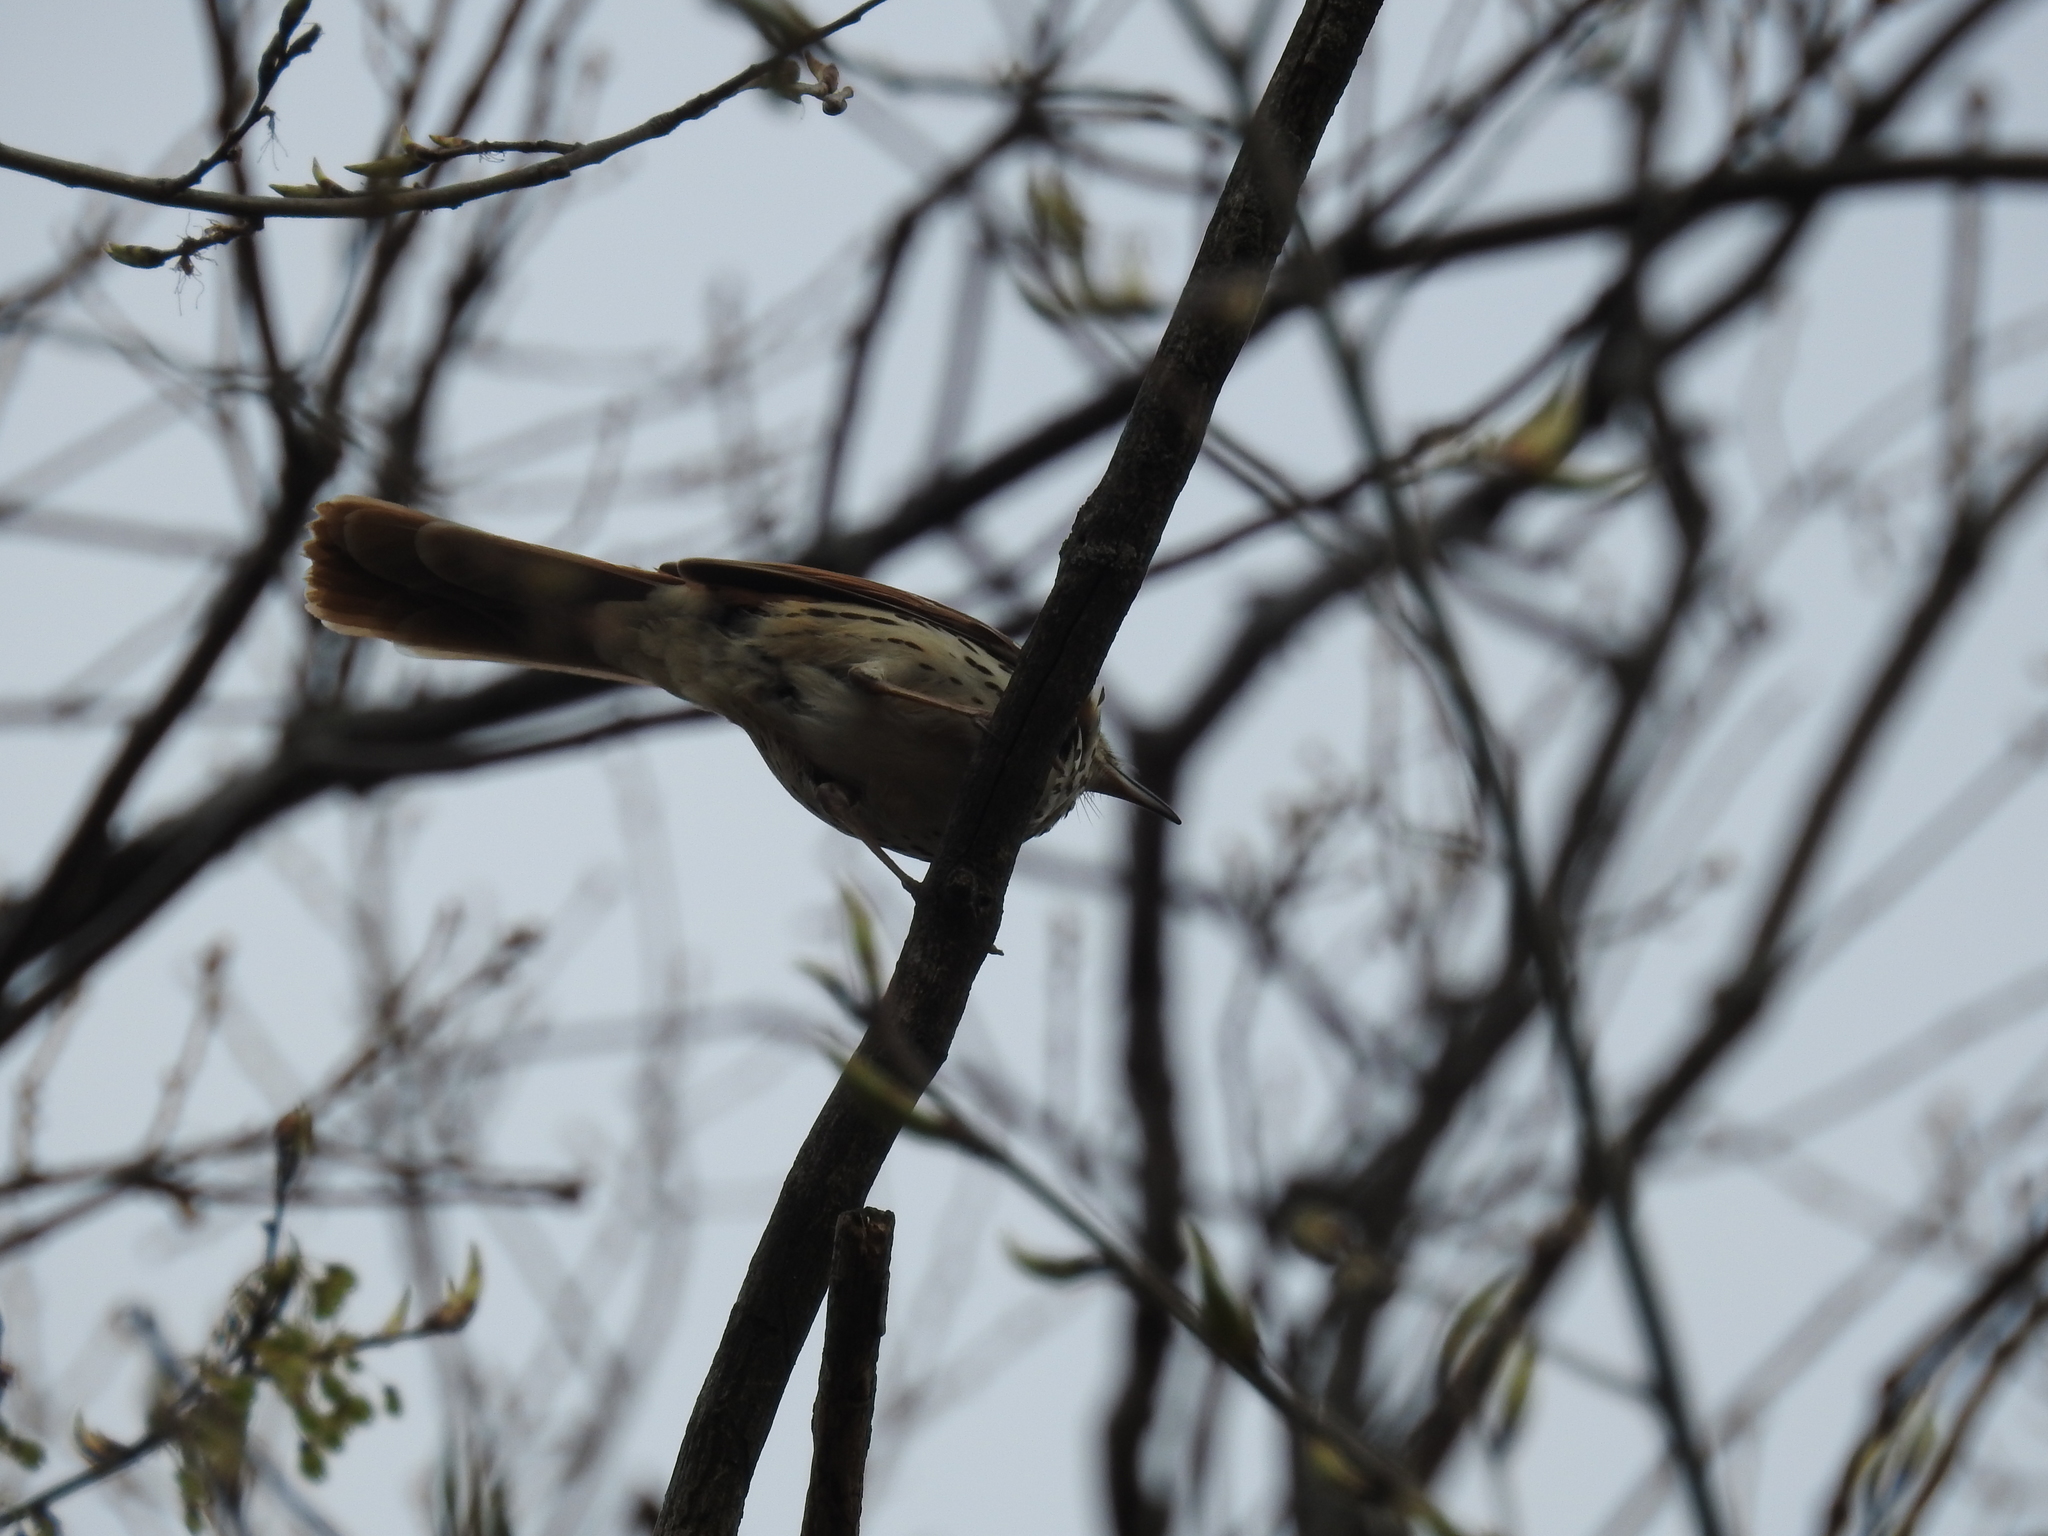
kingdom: Animalia
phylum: Chordata
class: Aves
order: Passeriformes
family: Mimidae
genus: Toxostoma
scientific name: Toxostoma rufum
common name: Brown thrasher
